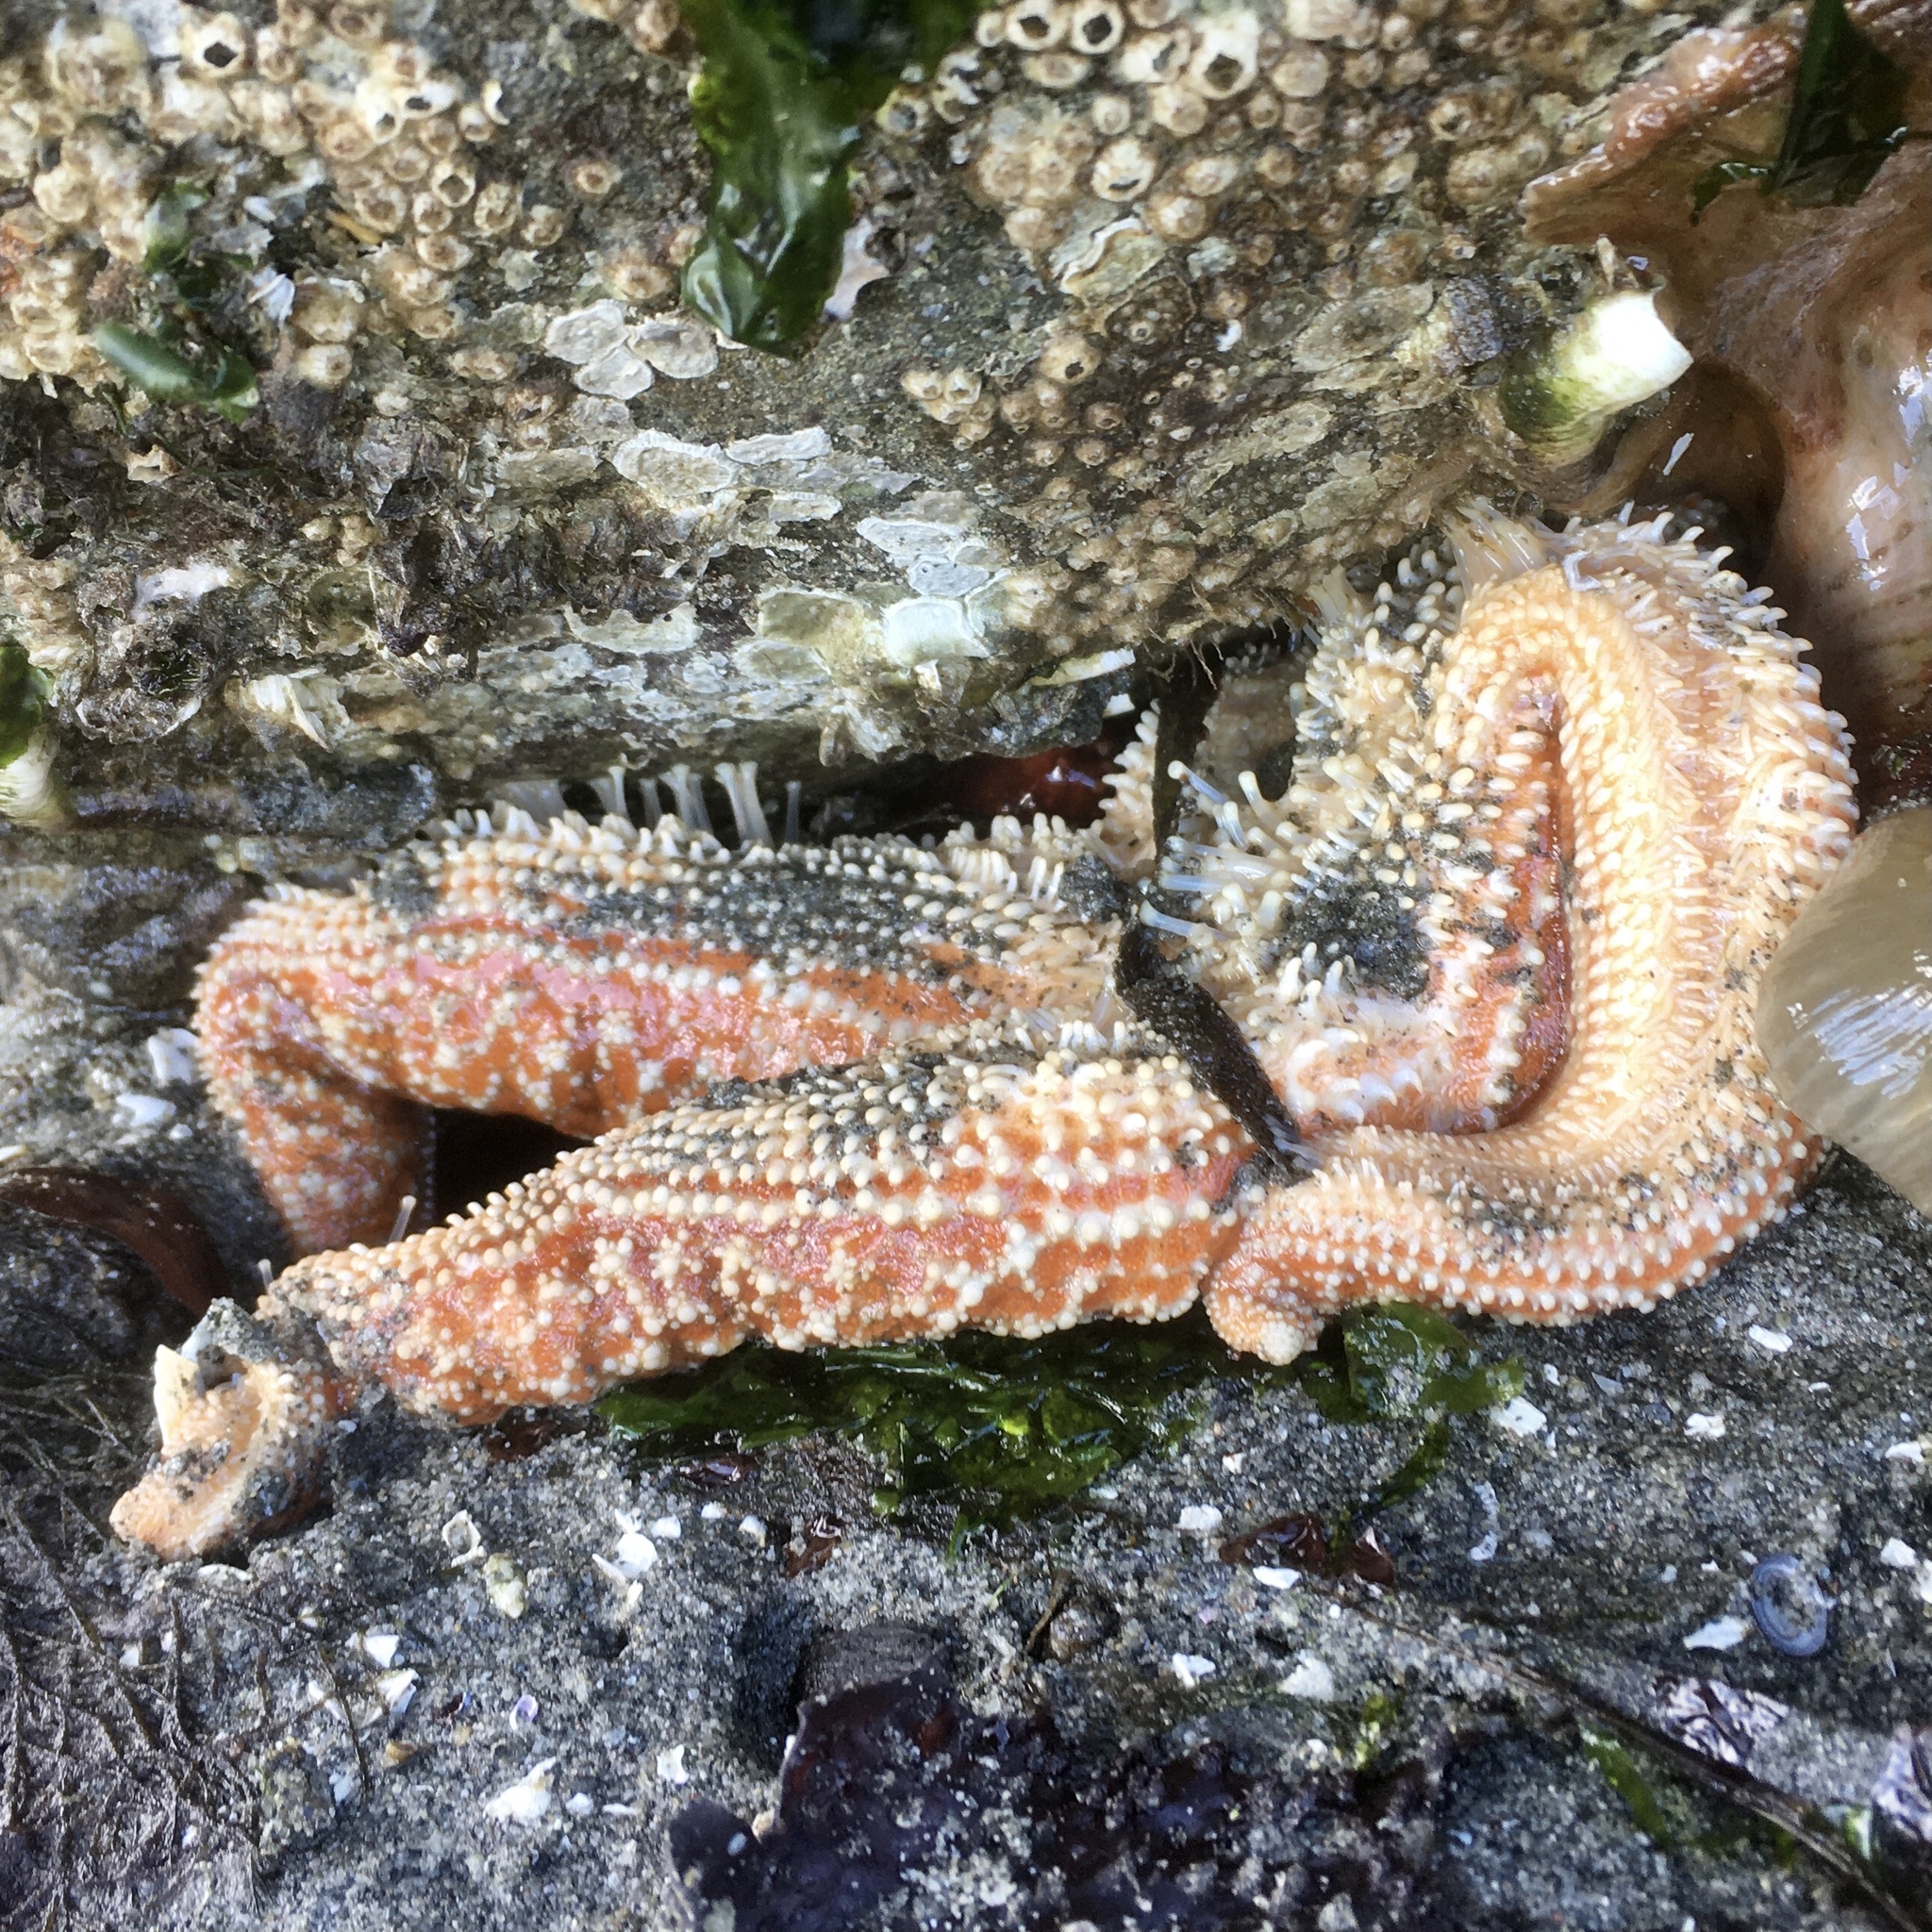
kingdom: Animalia
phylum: Echinodermata
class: Asteroidea
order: Forcipulatida
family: Asteriidae
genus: Evasterias
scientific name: Evasterias troschelii
